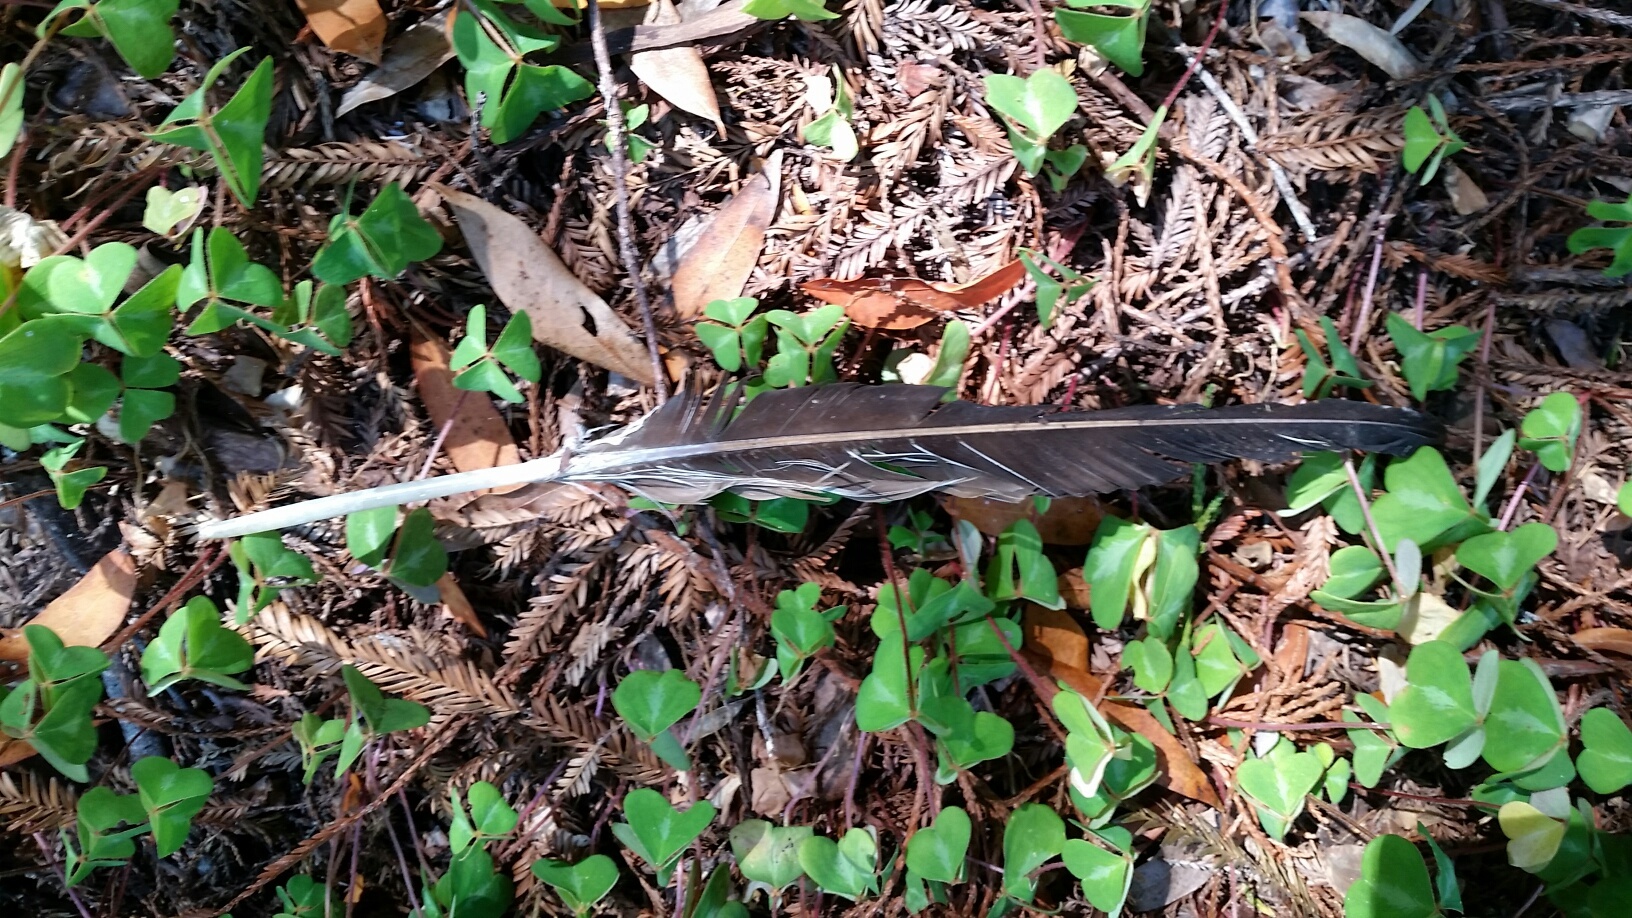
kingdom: Animalia
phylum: Chordata
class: Aves
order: Accipitriformes
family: Cathartidae
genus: Cathartes
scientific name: Cathartes aura
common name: Turkey vulture
